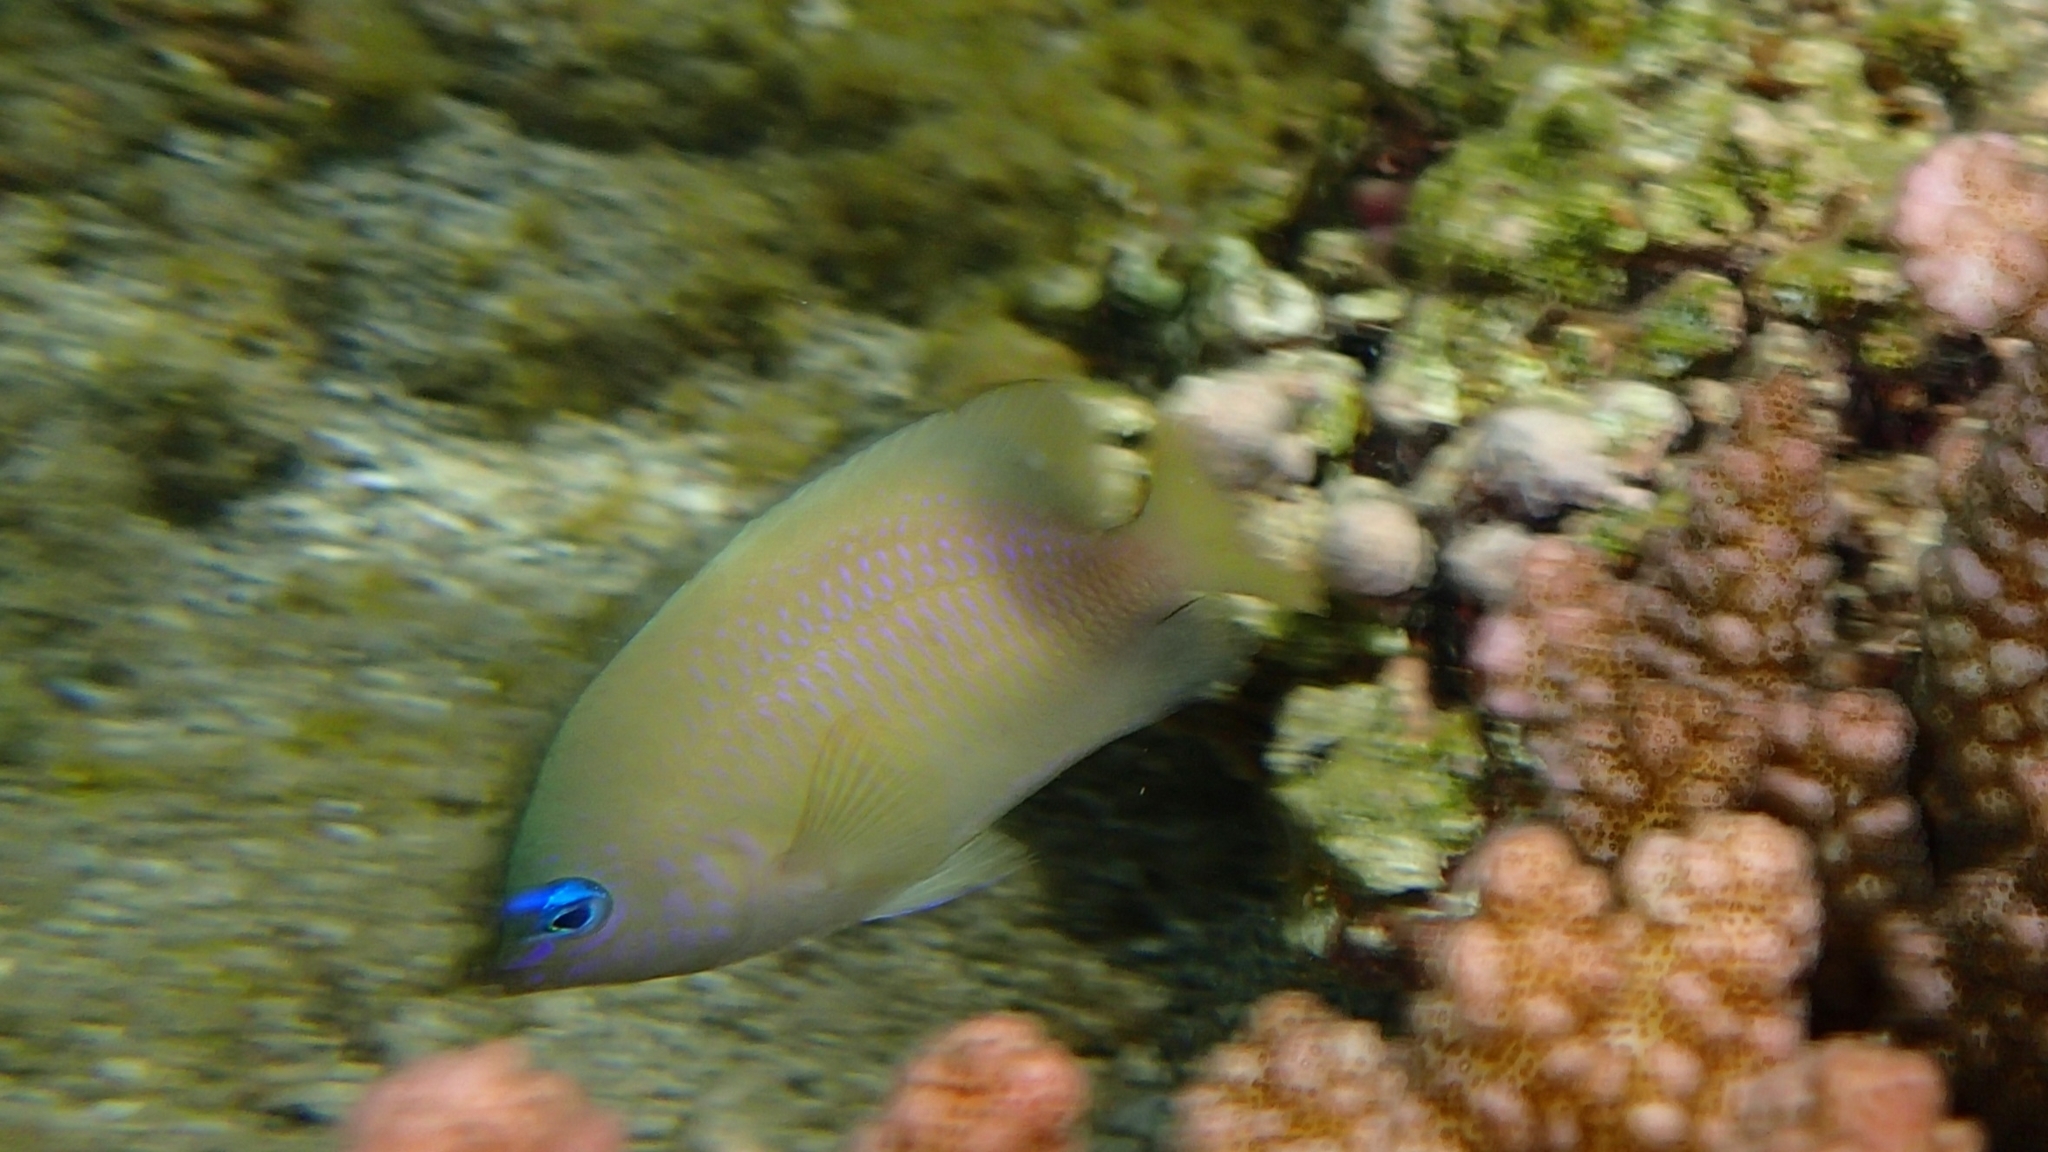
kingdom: Animalia
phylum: Chordata
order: Perciformes
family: Pomacentridae
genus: Plectroglyphidodon
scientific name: Plectroglyphidodon johnstonianus
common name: Johnston damsel
